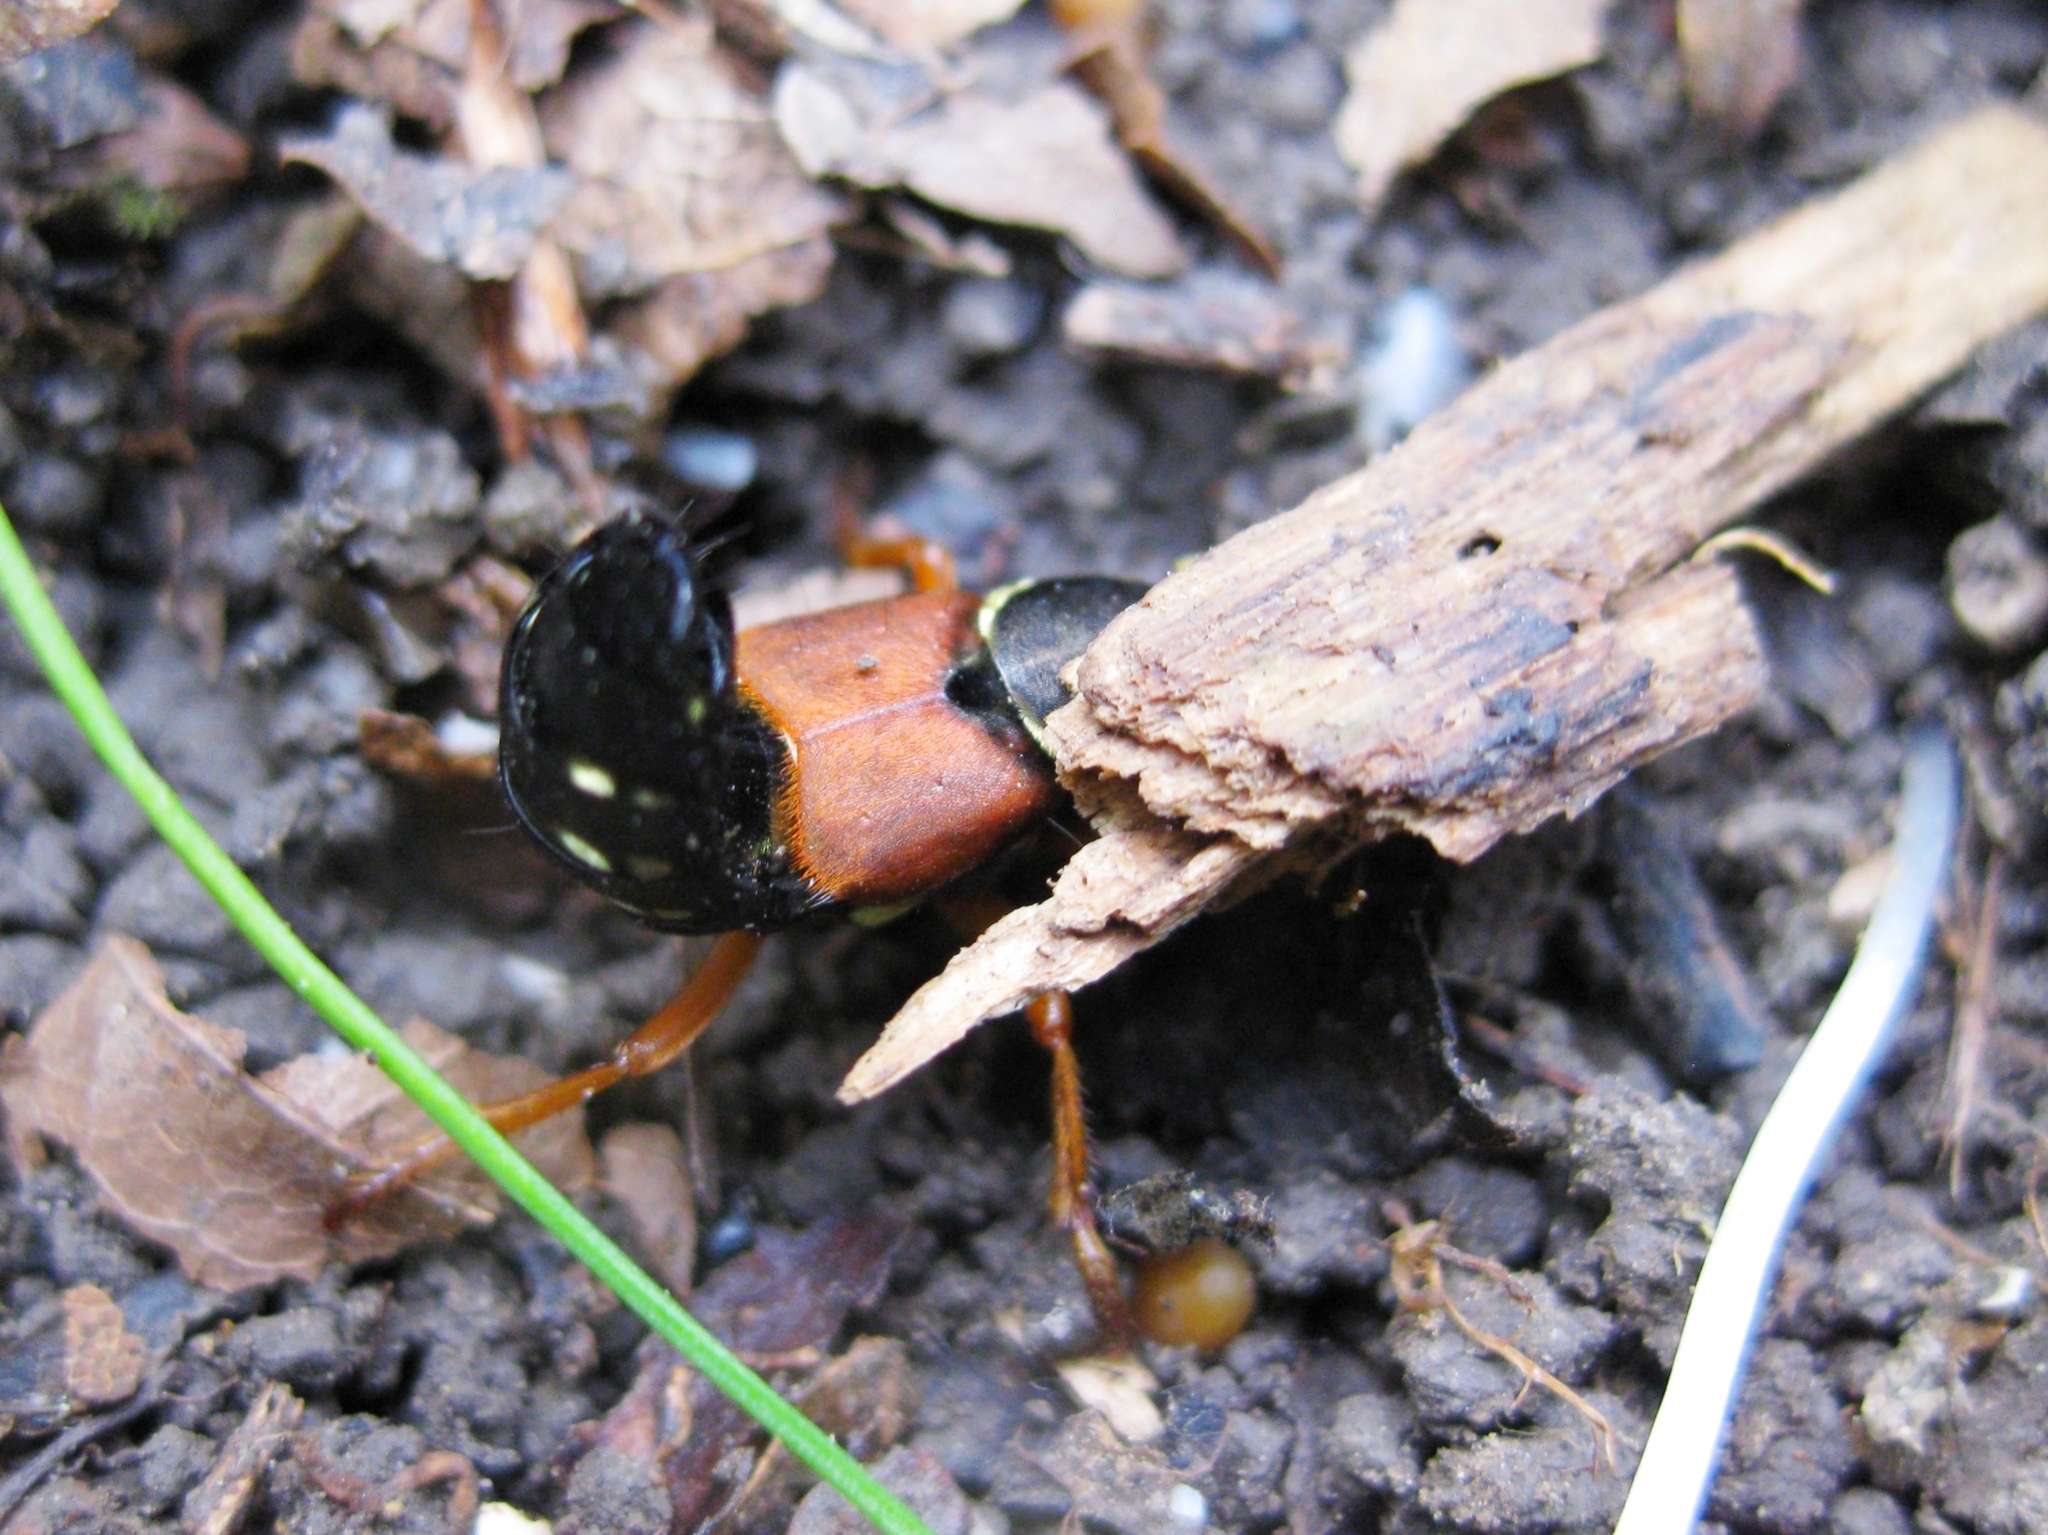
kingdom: Animalia
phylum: Arthropoda
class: Insecta
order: Coleoptera
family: Staphylinidae
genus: Staphylinus
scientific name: Staphylinus caesareus
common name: Staph beetle
